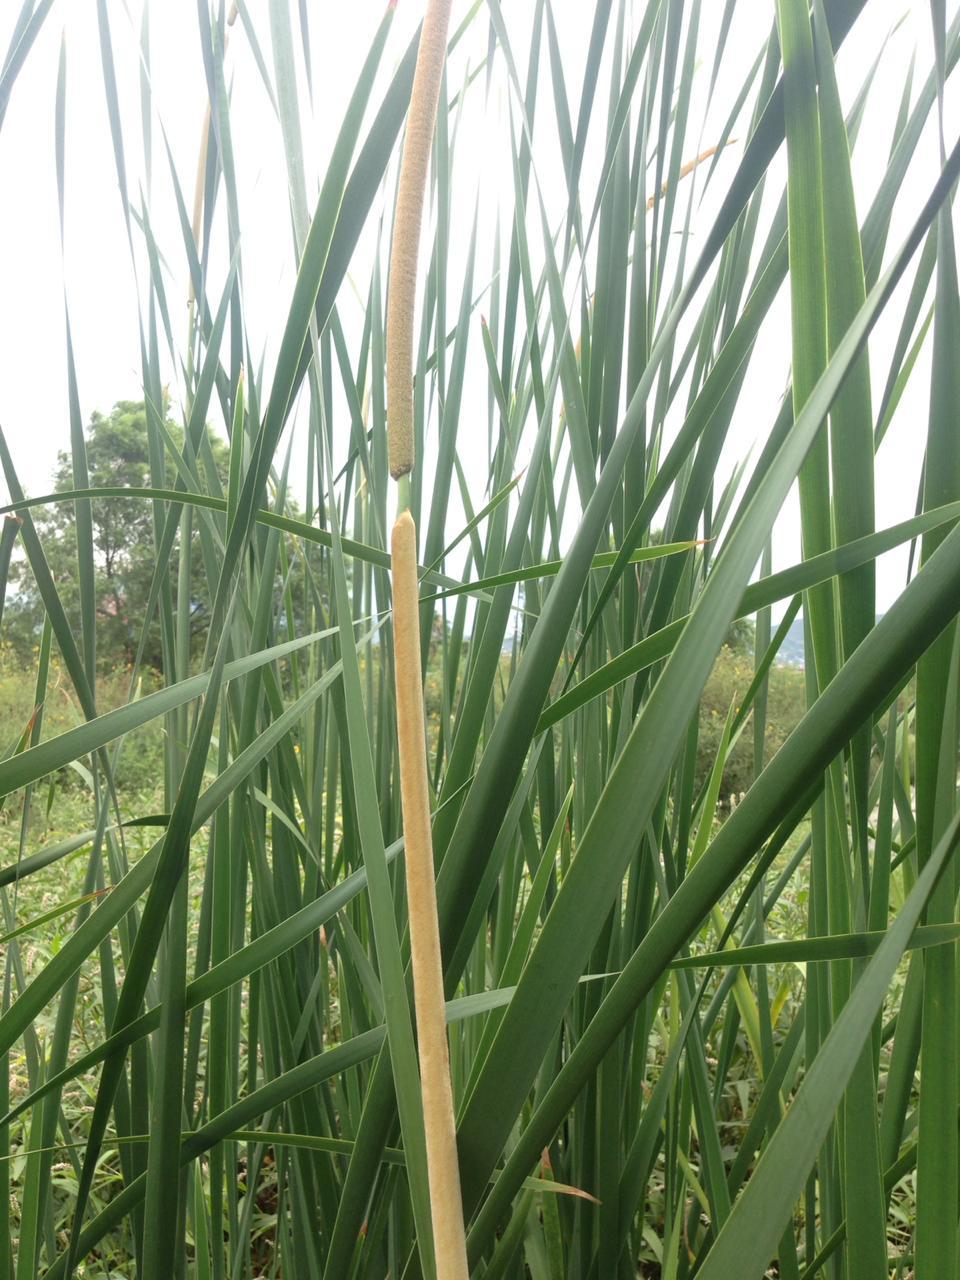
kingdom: Plantae
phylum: Tracheophyta
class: Liliopsida
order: Poales
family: Typhaceae
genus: Typha
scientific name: Typha domingensis
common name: Southern cattail
